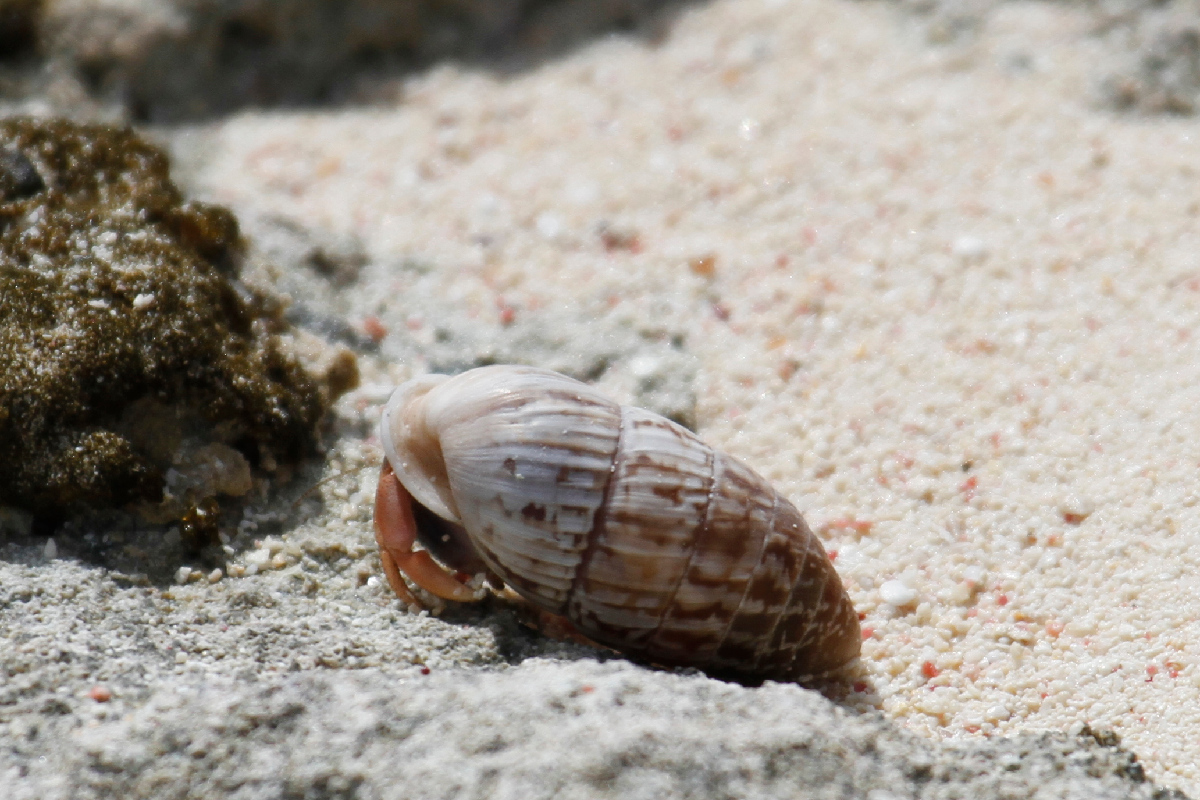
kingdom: Animalia
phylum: Arthropoda
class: Malacostraca
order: Decapoda
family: Coenobitidae
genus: Coenobita
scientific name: Coenobita clypeatus
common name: Caribbean hermit crab
